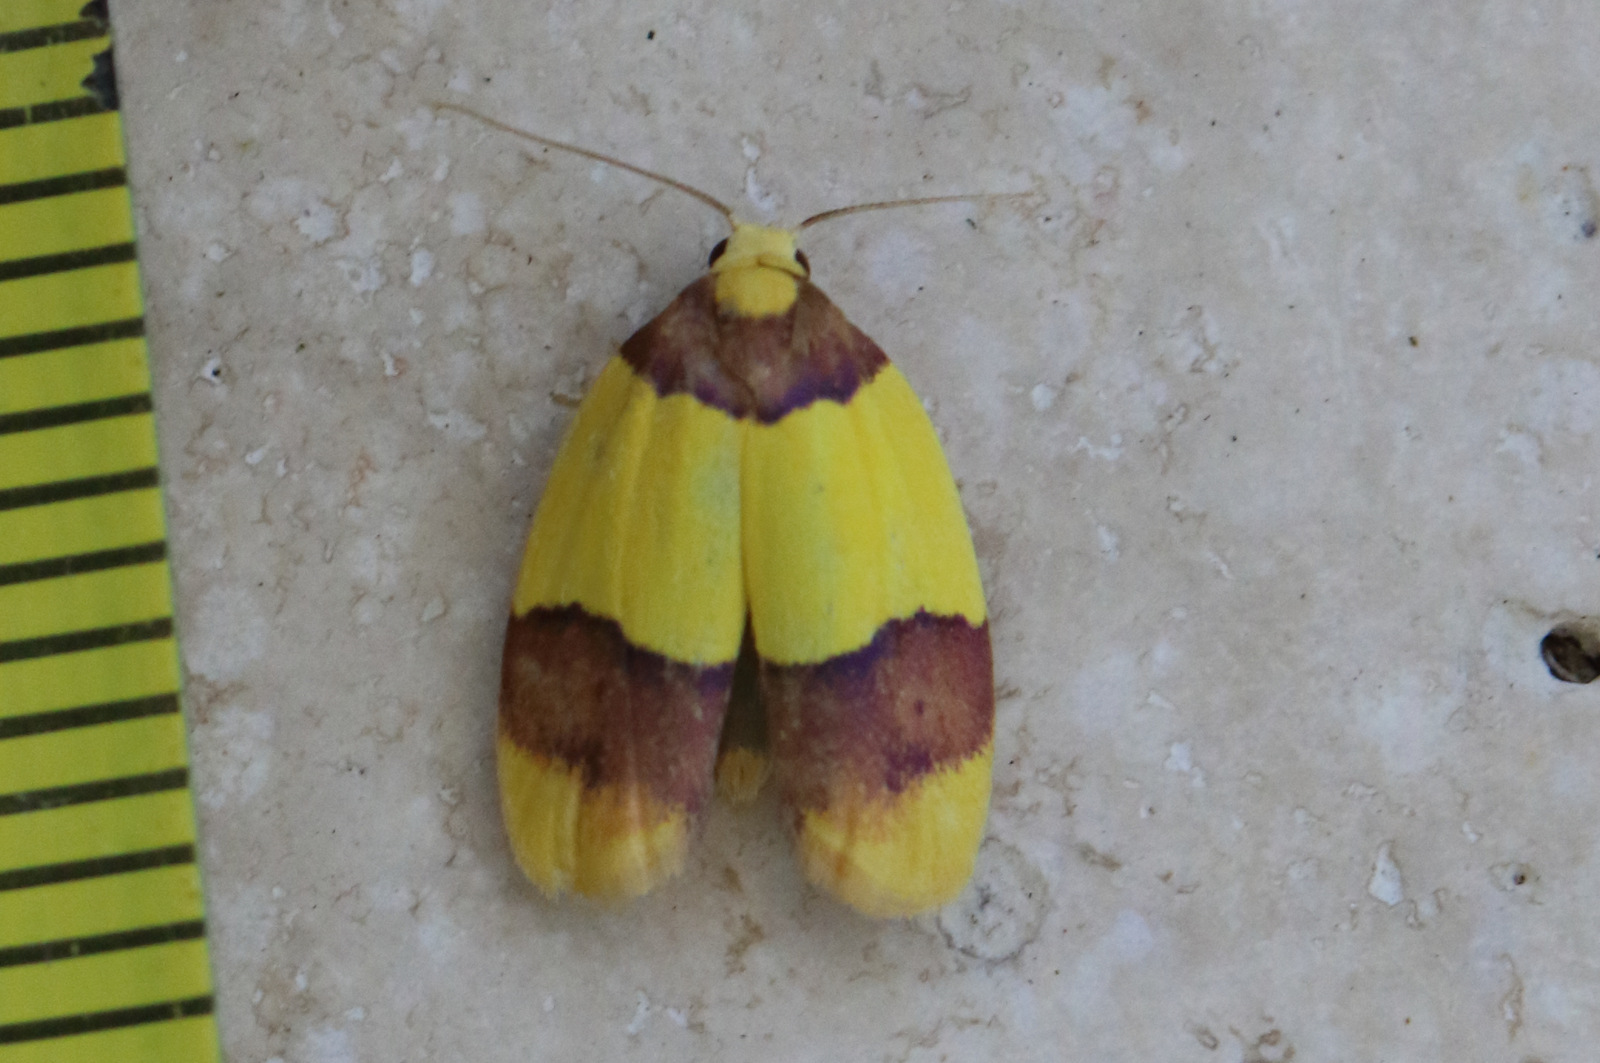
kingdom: Animalia
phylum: Arthropoda
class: Insecta
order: Lepidoptera
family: Erebidae
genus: Heterallactis
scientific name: Heterallactis euchrysa
